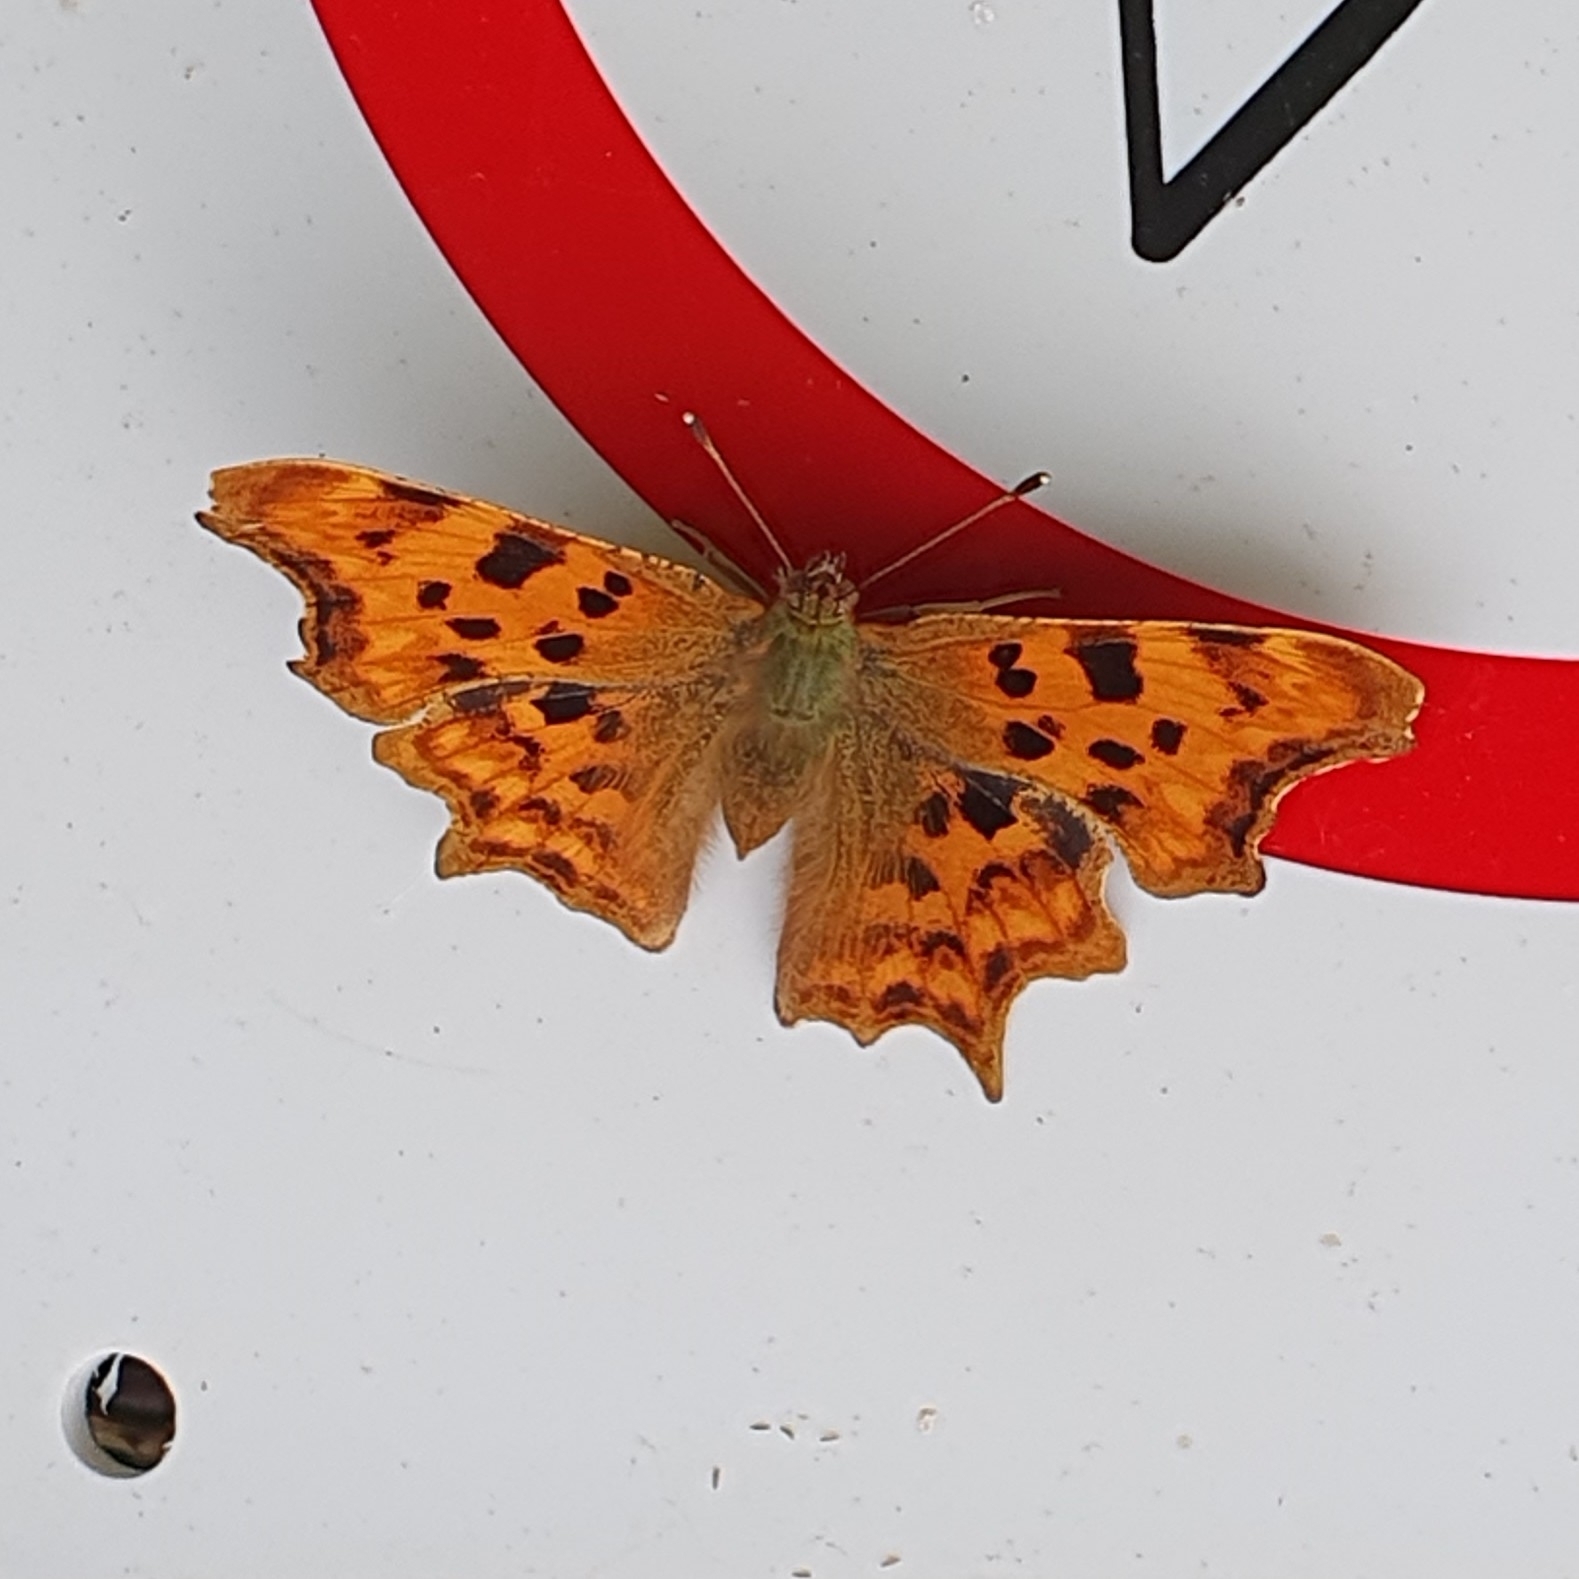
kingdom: Animalia
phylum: Arthropoda
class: Insecta
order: Lepidoptera
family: Nymphalidae
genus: Polygonia
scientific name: Polygonia c-album
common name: Comma
